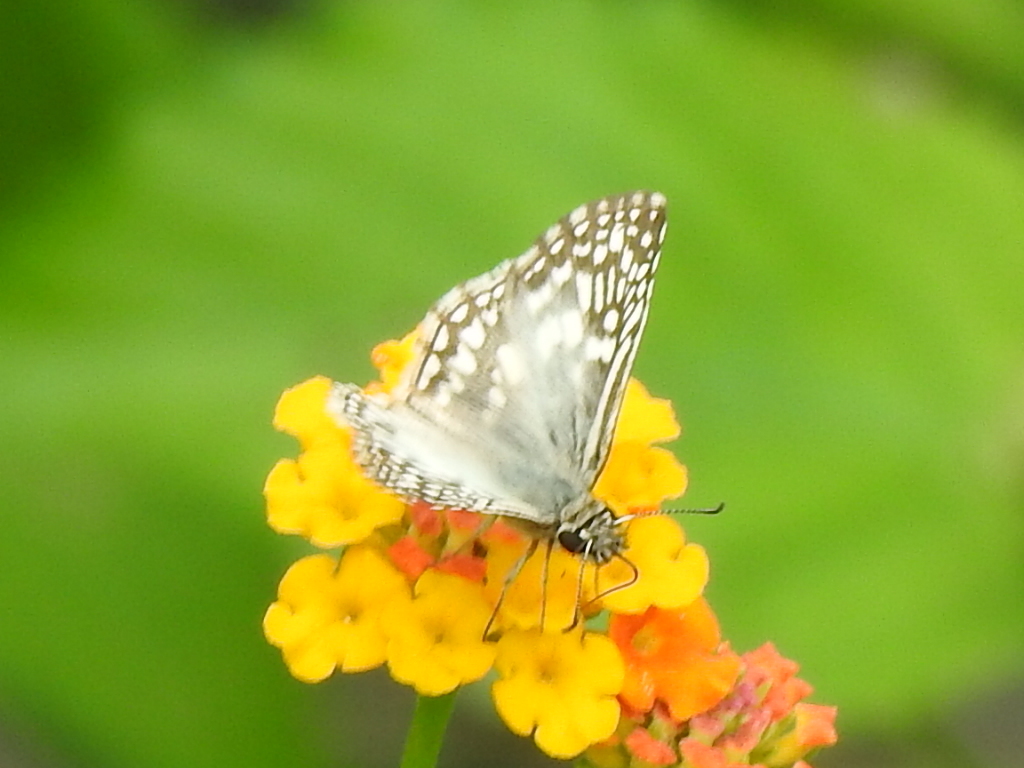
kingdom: Animalia
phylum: Arthropoda
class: Insecta
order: Lepidoptera
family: Hesperiidae
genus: Pyrgus
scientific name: Pyrgus oileus
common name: Tropical checkered-skipper
